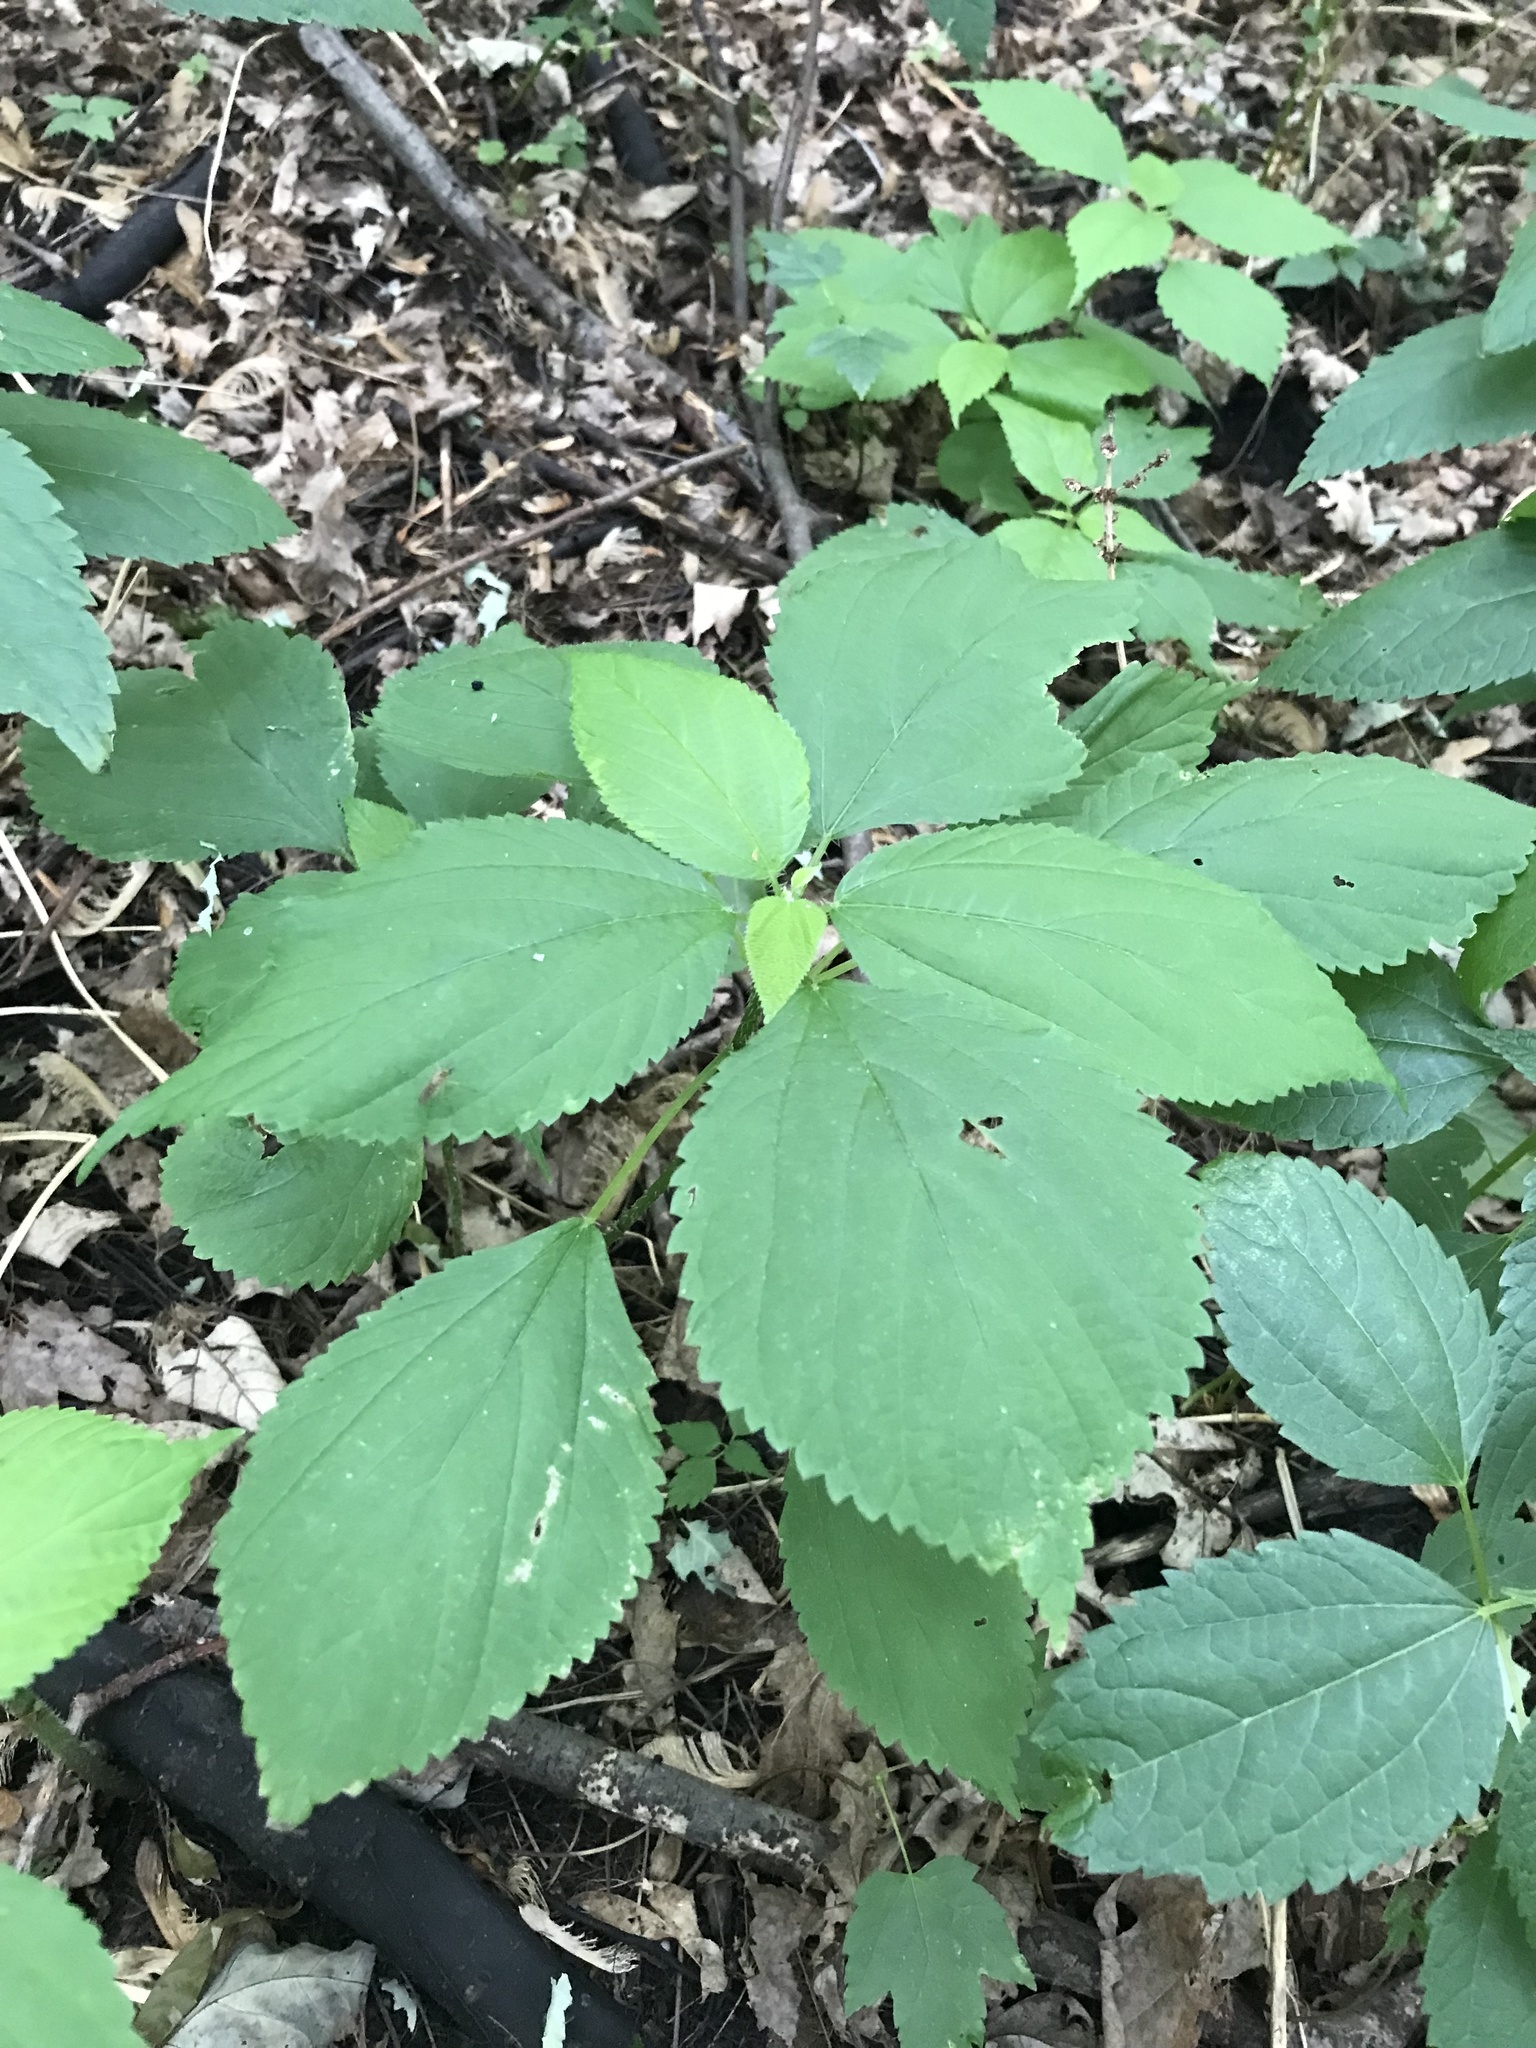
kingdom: Plantae
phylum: Tracheophyta
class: Magnoliopsida
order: Rosales
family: Urticaceae
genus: Laportea
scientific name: Laportea canadensis
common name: Canada nettle
